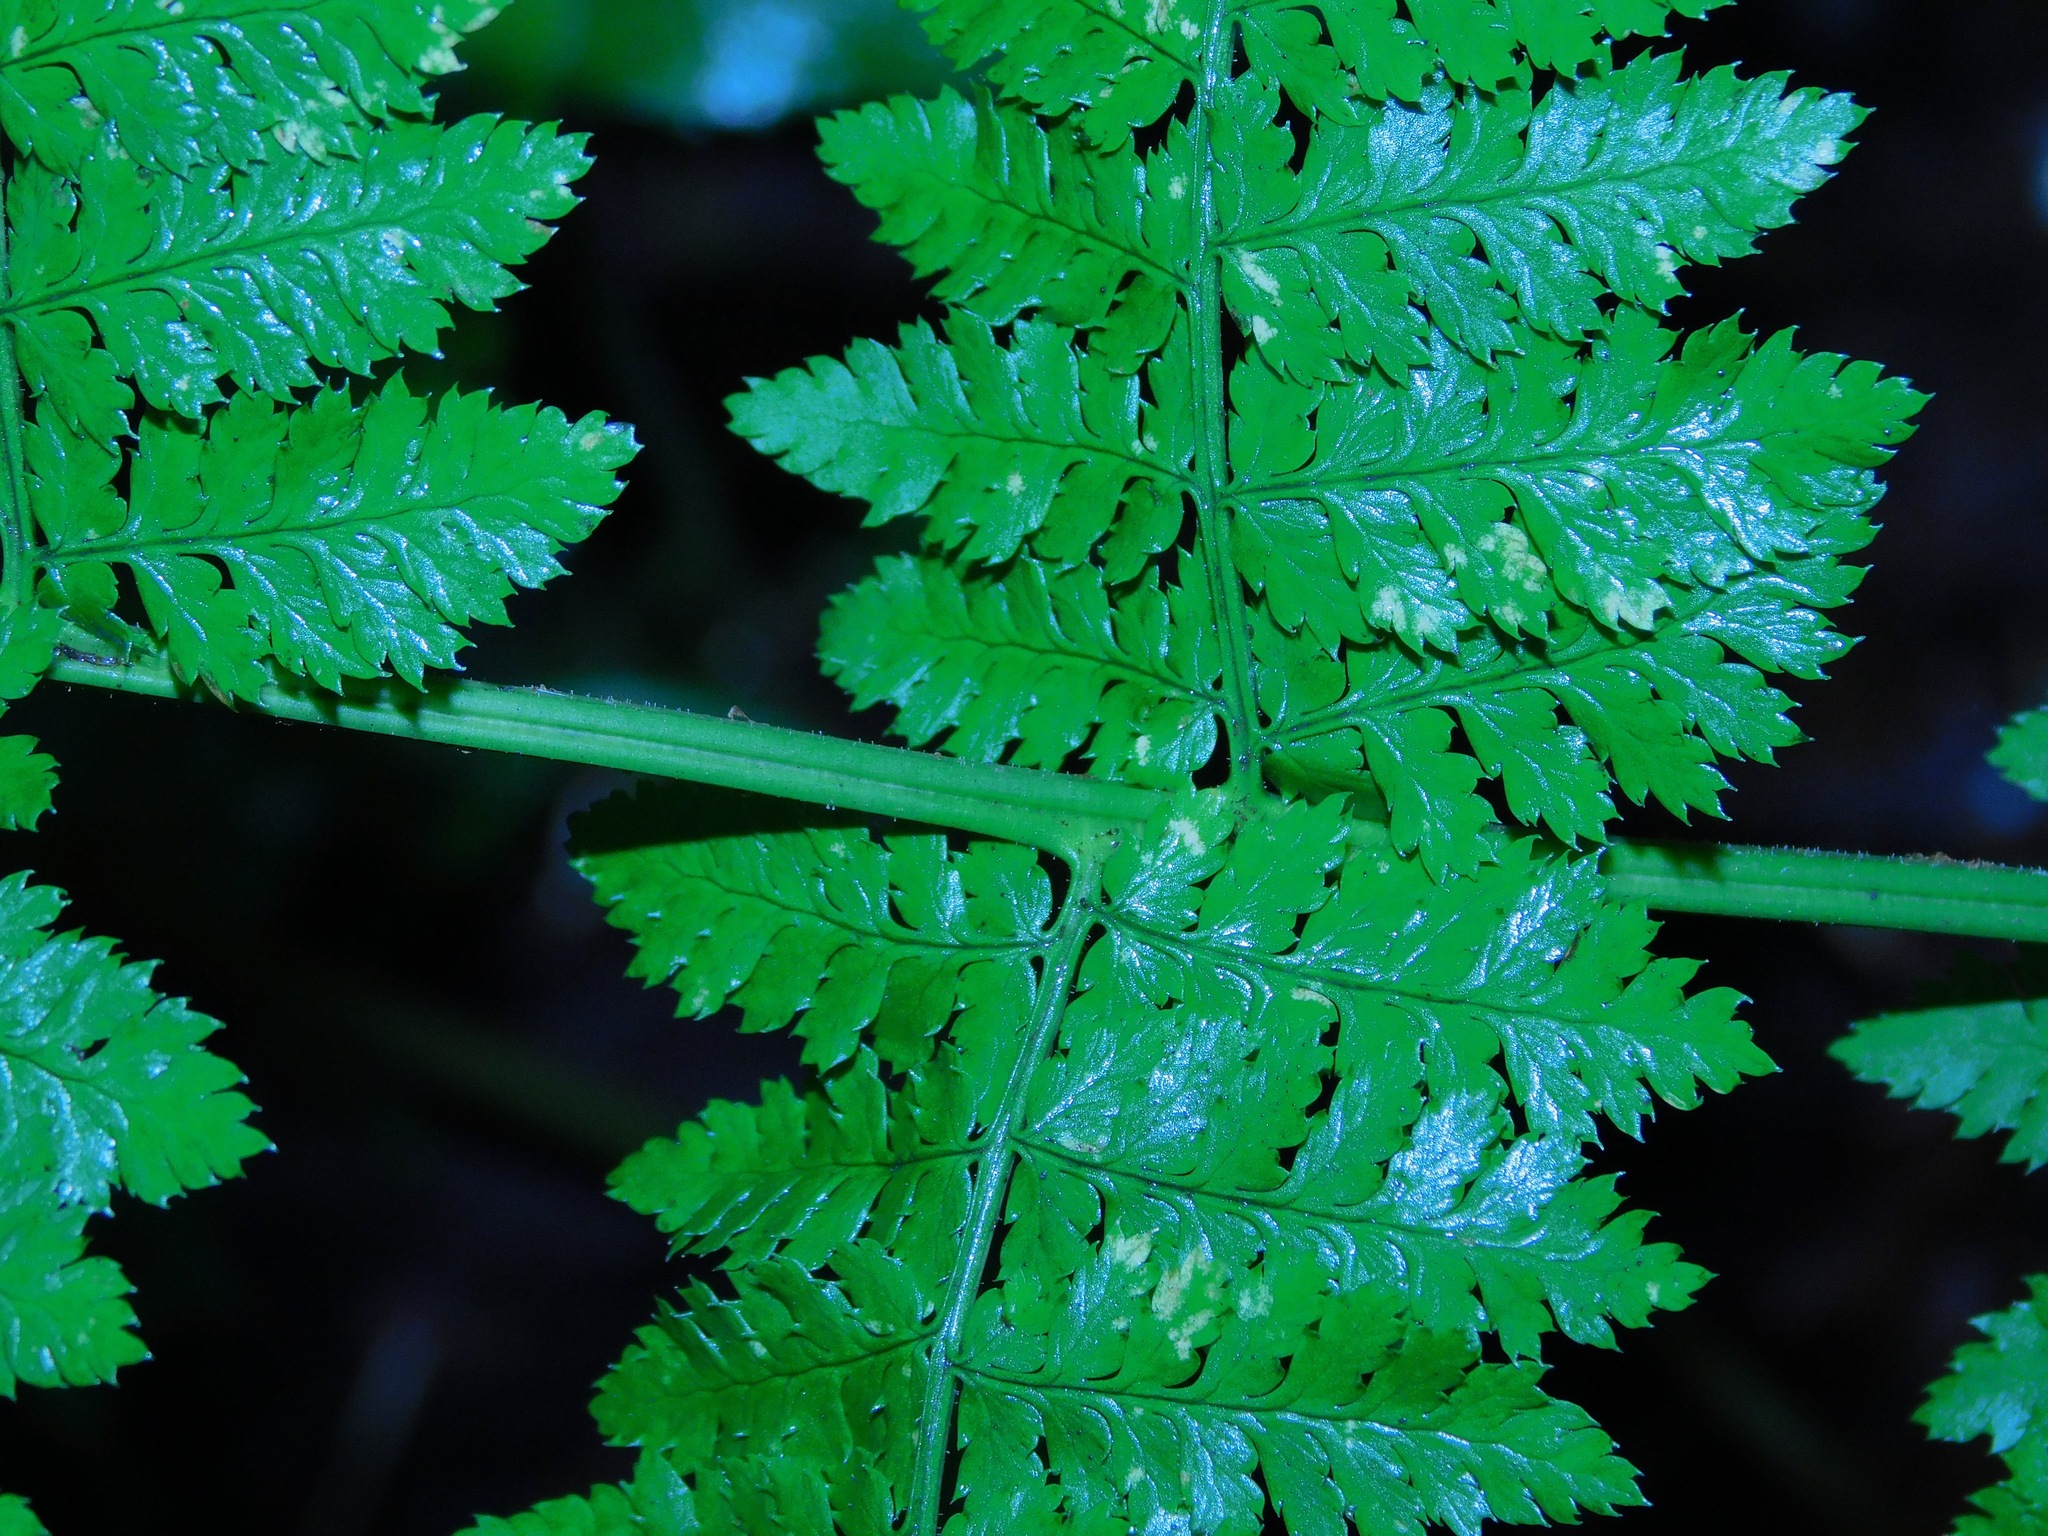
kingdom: Plantae
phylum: Tracheophyta
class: Polypodiopsida
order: Polypodiales
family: Dryopteridaceae
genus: Dryopteris
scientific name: Dryopteris intermedia
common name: Evergreen wood fern
